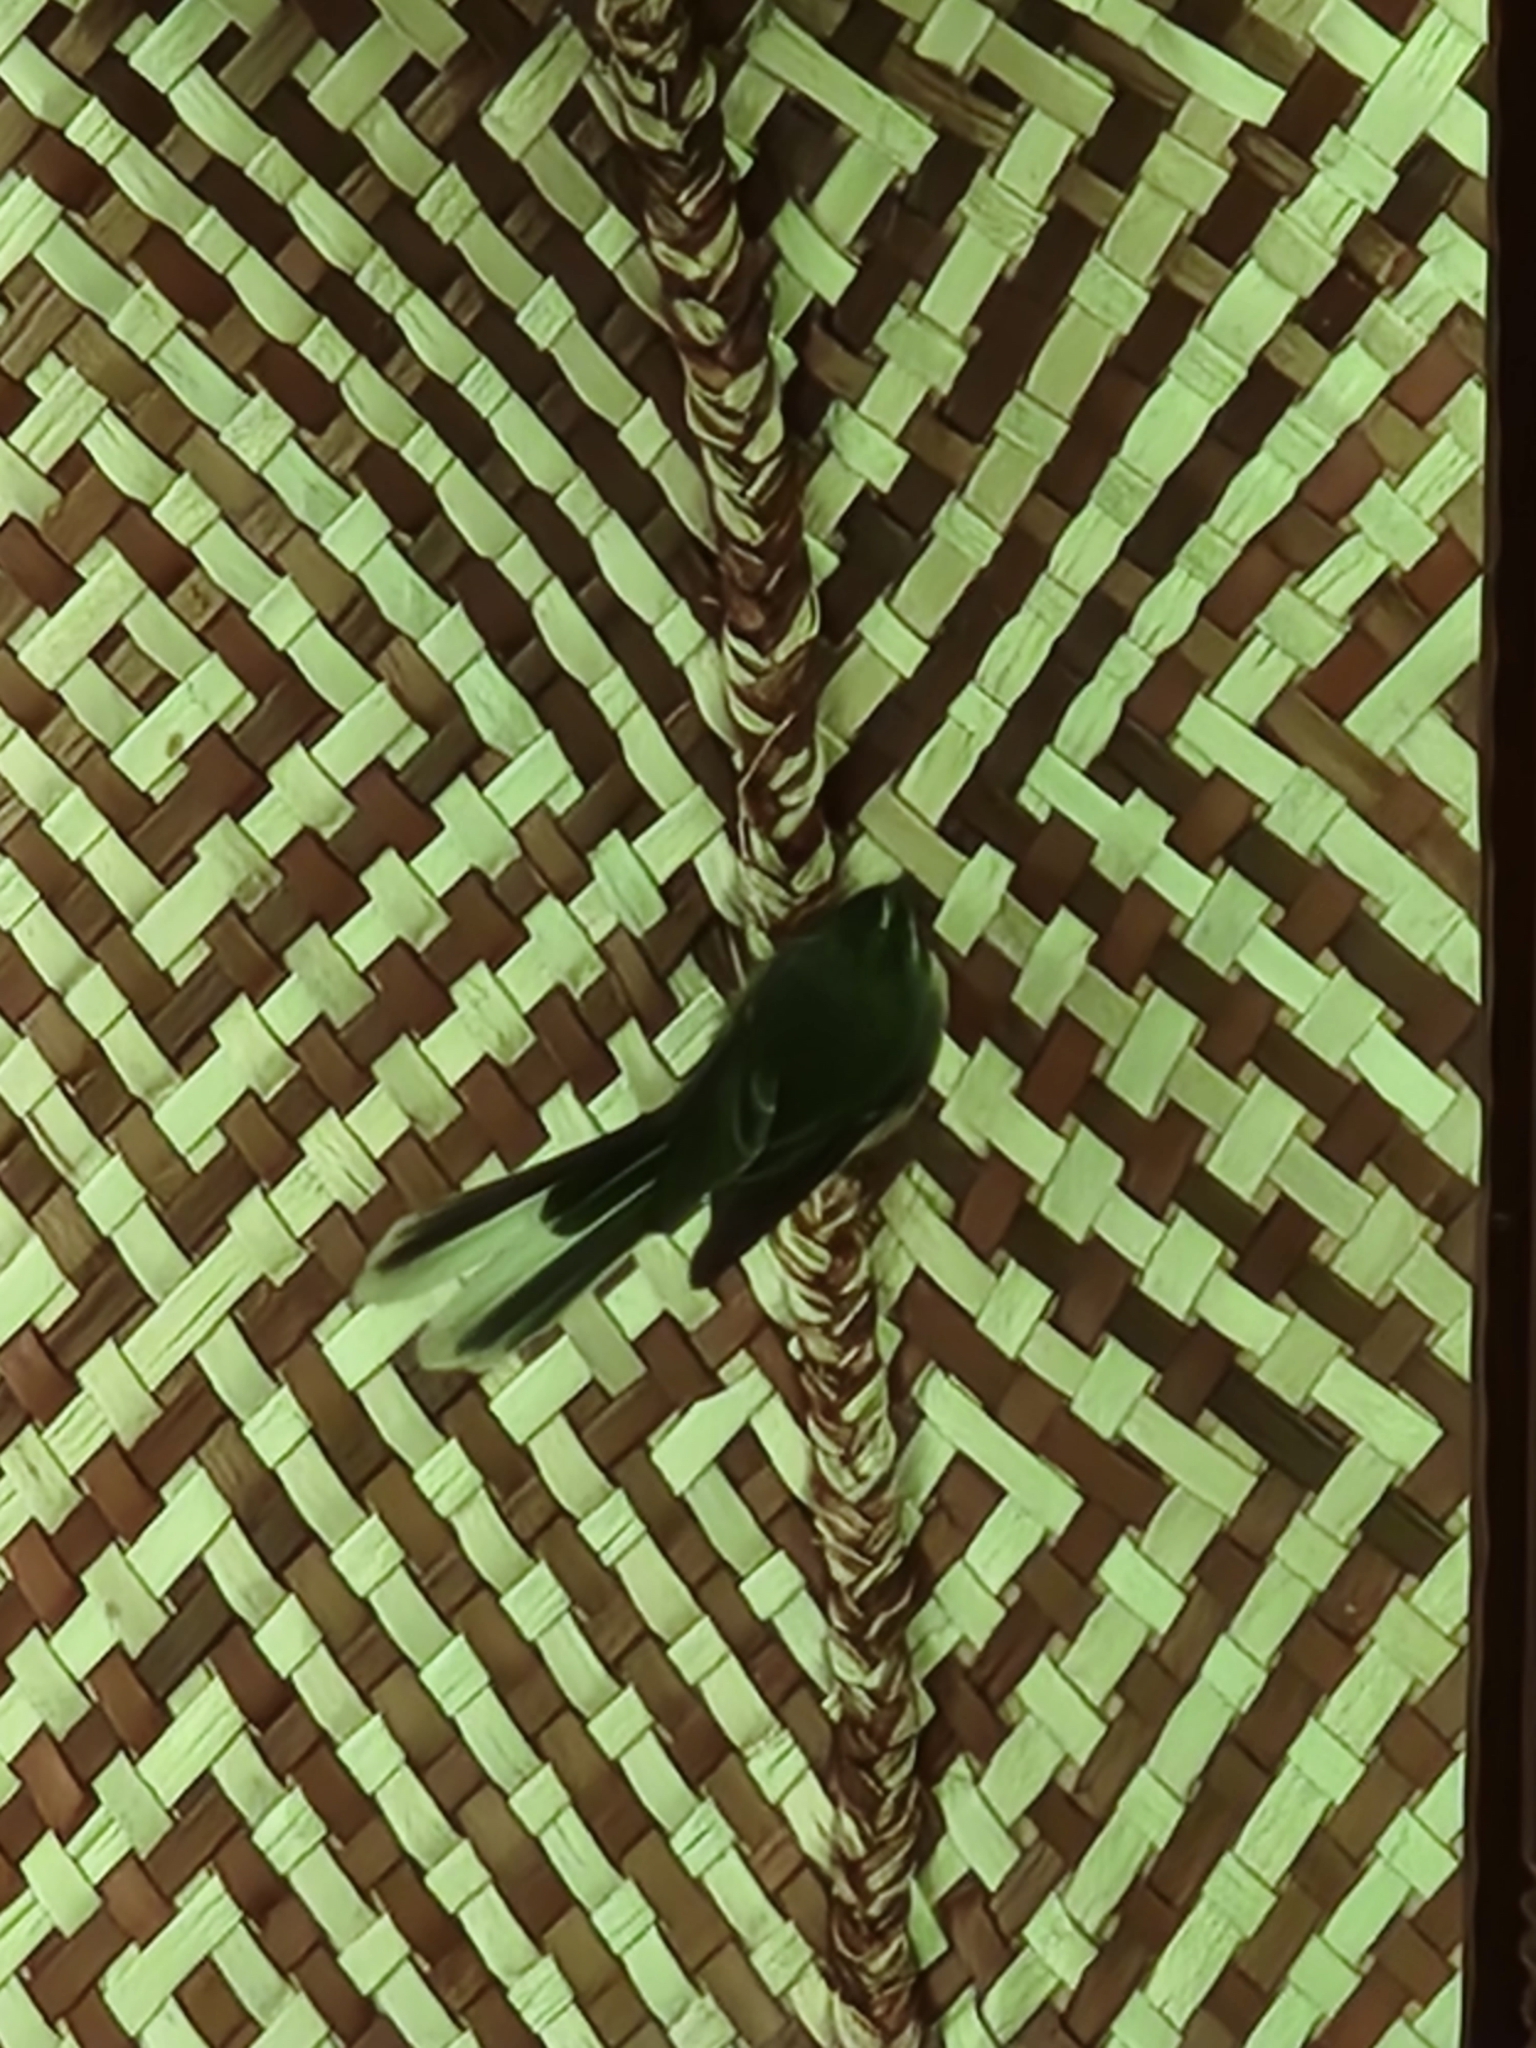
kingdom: Animalia
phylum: Chordata
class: Aves
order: Passeriformes
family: Rhipiduridae
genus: Rhipidura
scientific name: Rhipidura fuliginosa
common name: New zealand fantail
